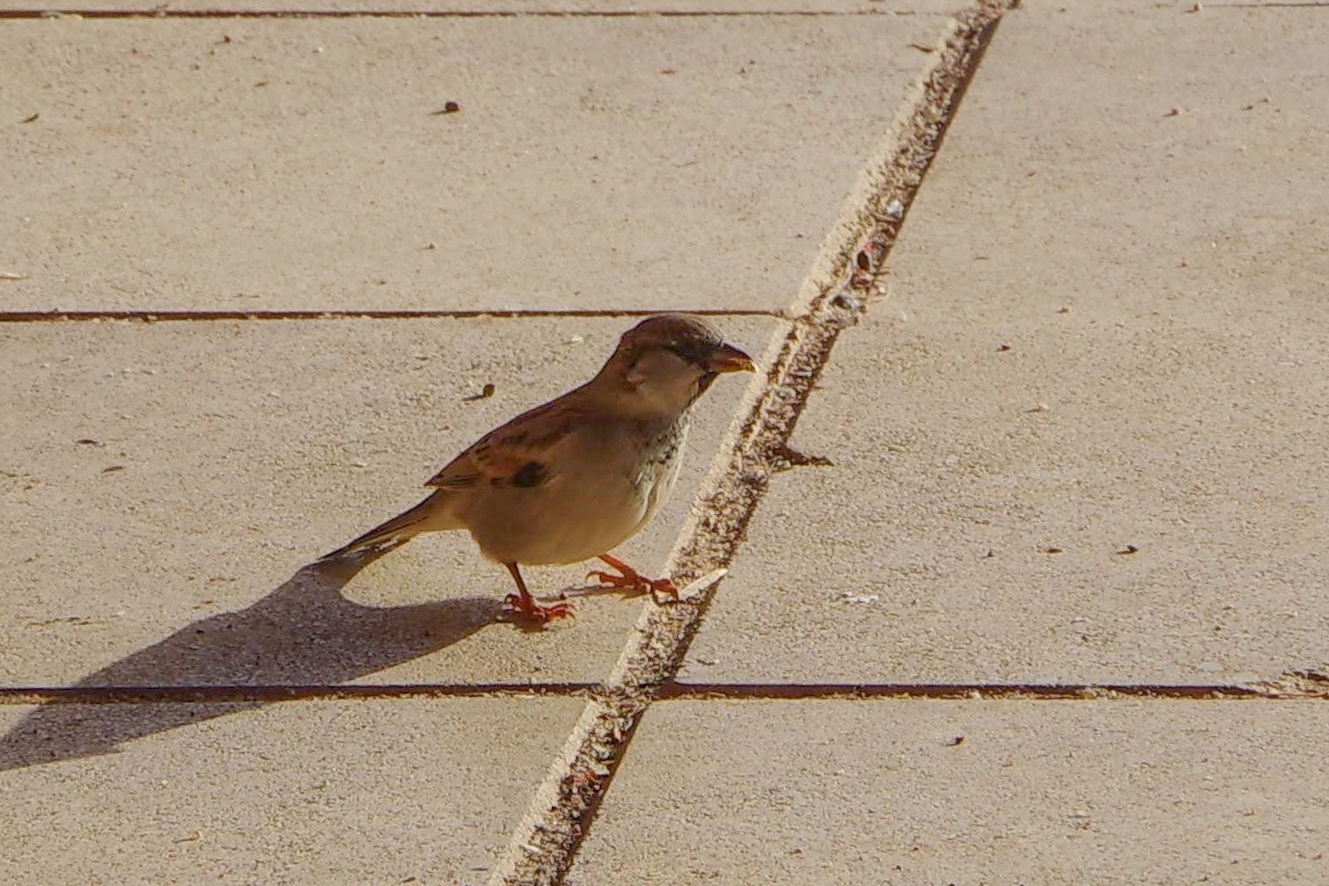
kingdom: Animalia
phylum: Chordata
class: Aves
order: Passeriformes
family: Passeridae
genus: Passer
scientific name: Passer domesticus
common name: House sparrow
